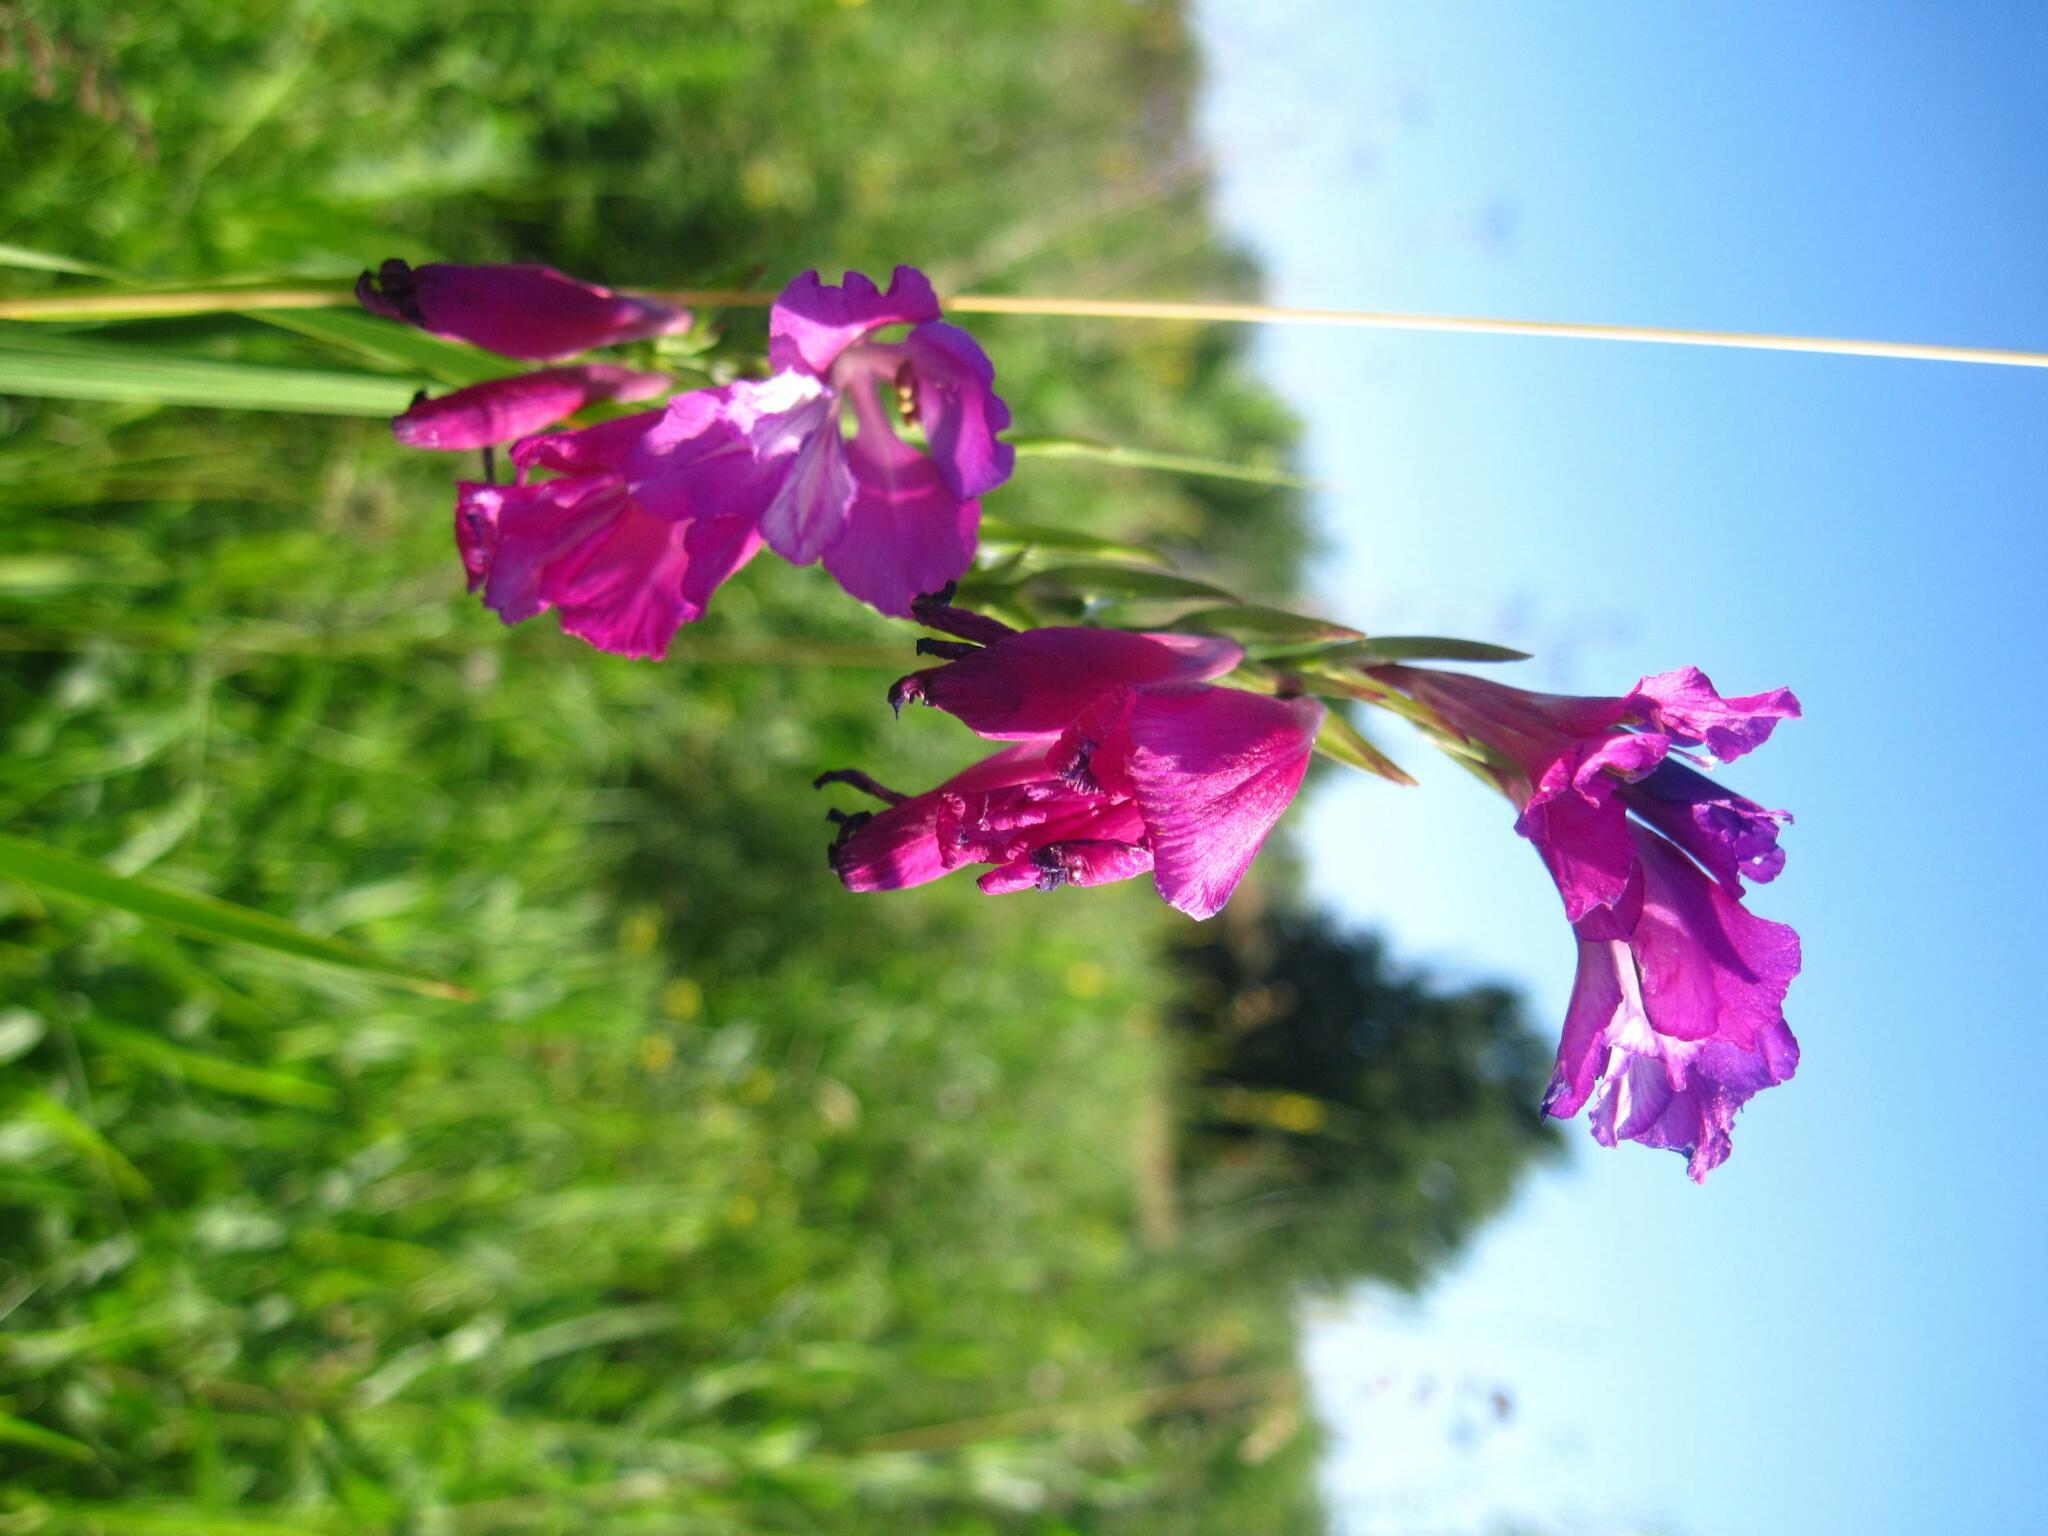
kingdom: Plantae
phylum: Tracheophyta
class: Liliopsida
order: Asparagales
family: Iridaceae
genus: Gladiolus
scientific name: Gladiolus tenuis
